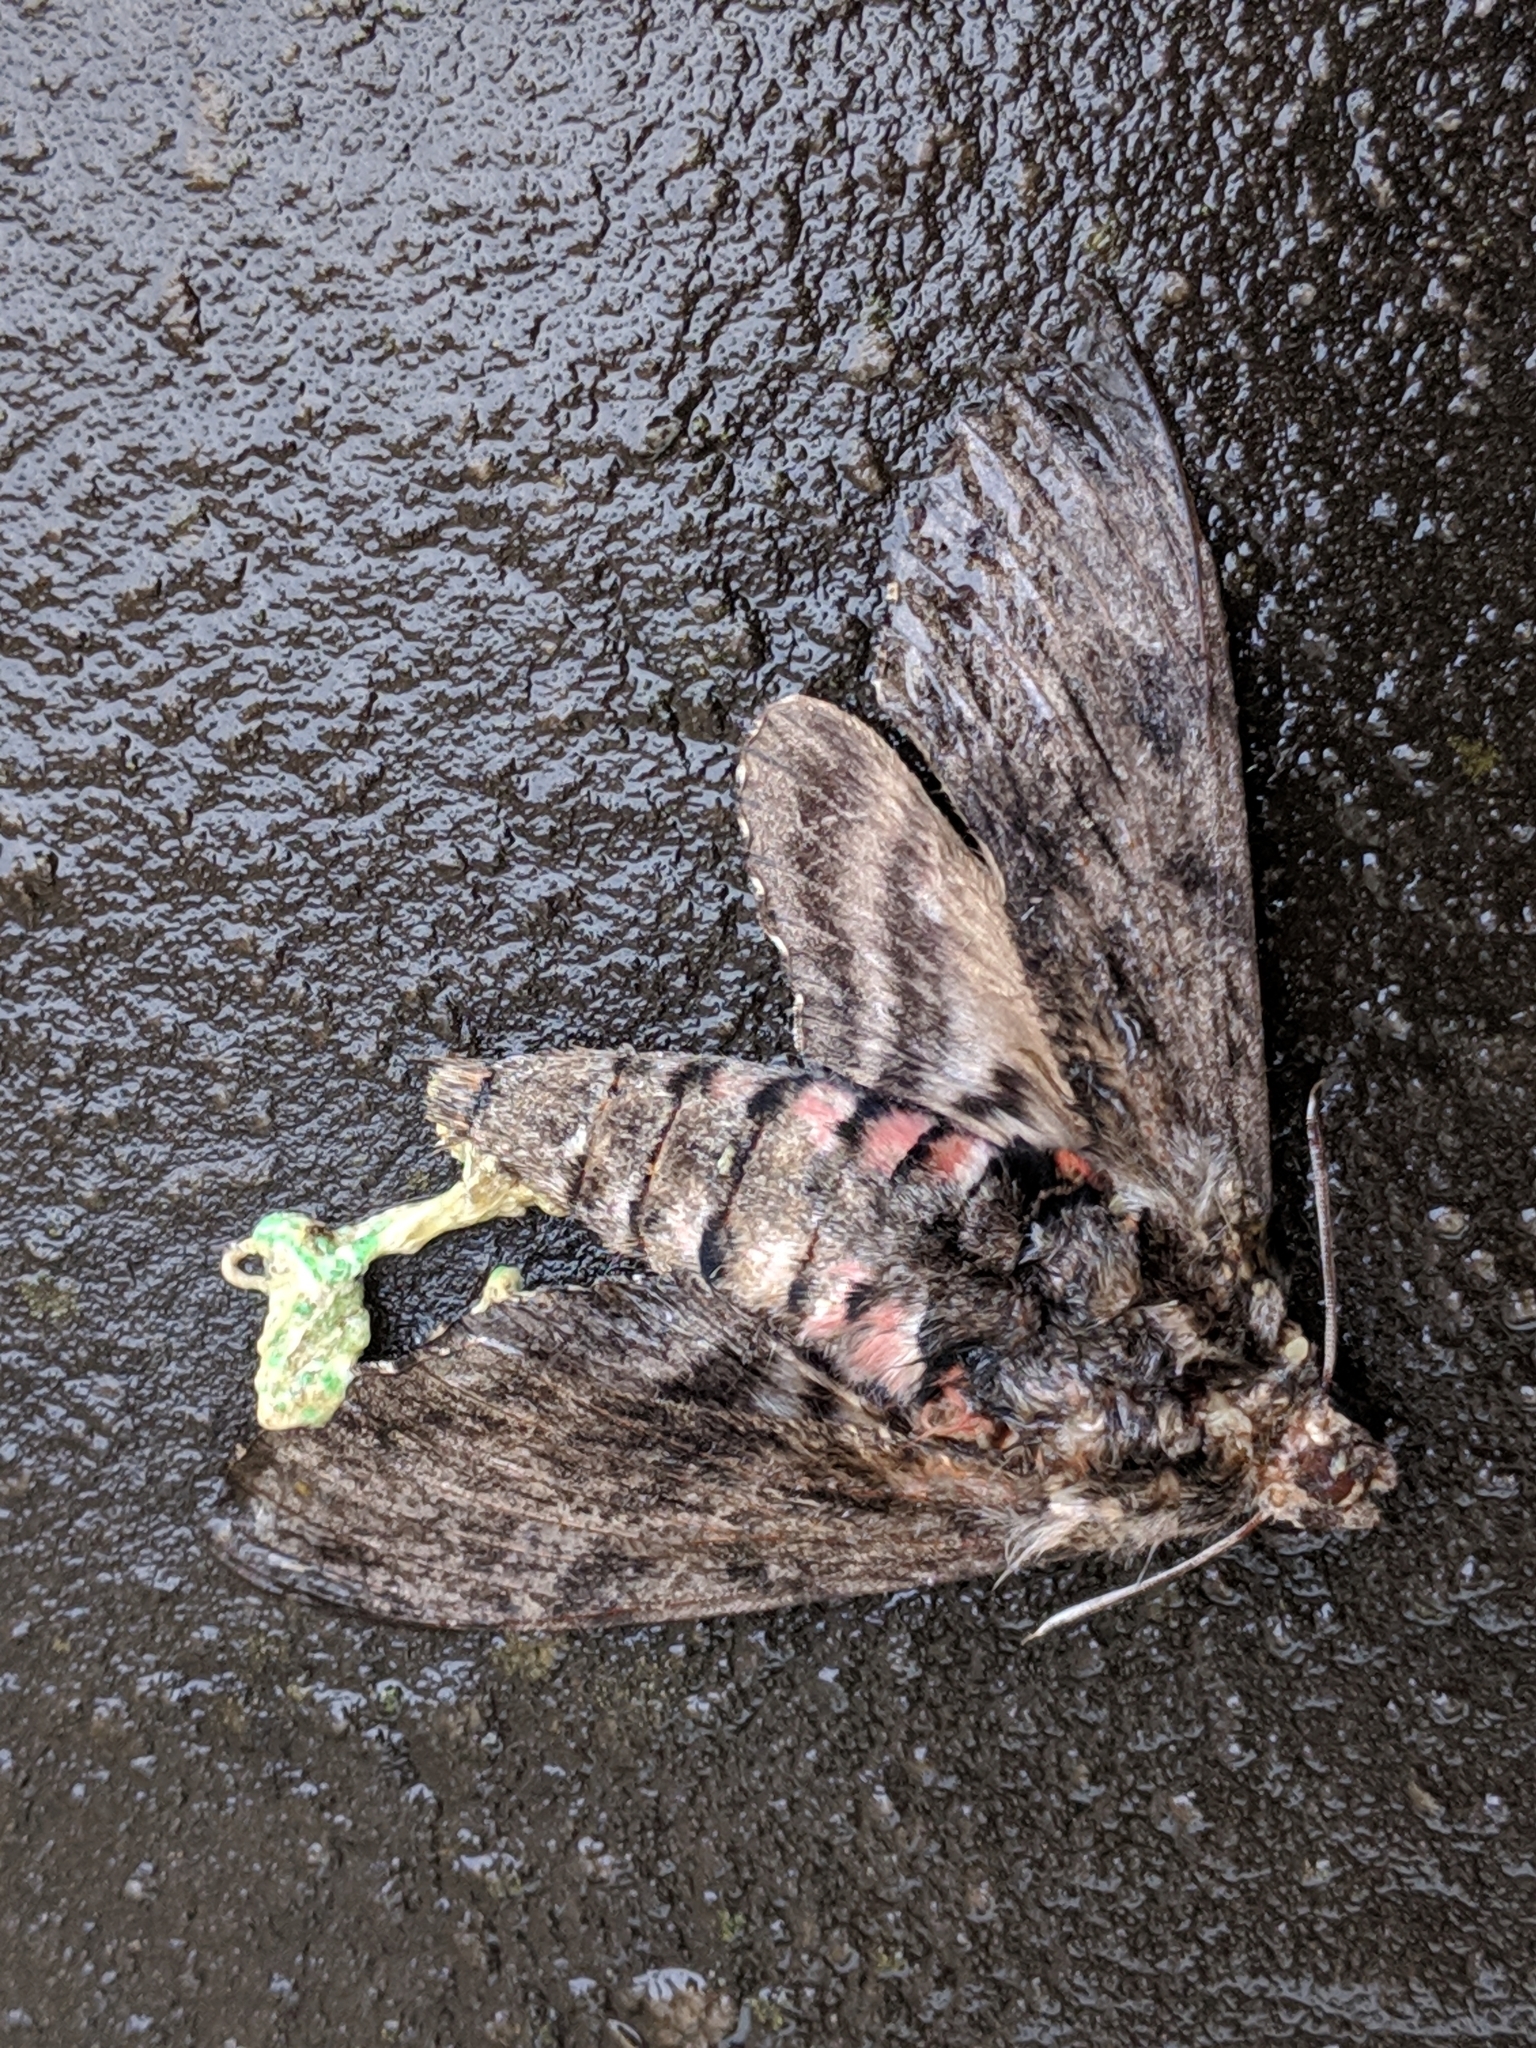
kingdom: Animalia
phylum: Arthropoda
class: Insecta
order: Lepidoptera
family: Sphingidae
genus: Agrius
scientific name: Agrius convolvuli
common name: Convolvulus hawkmoth
